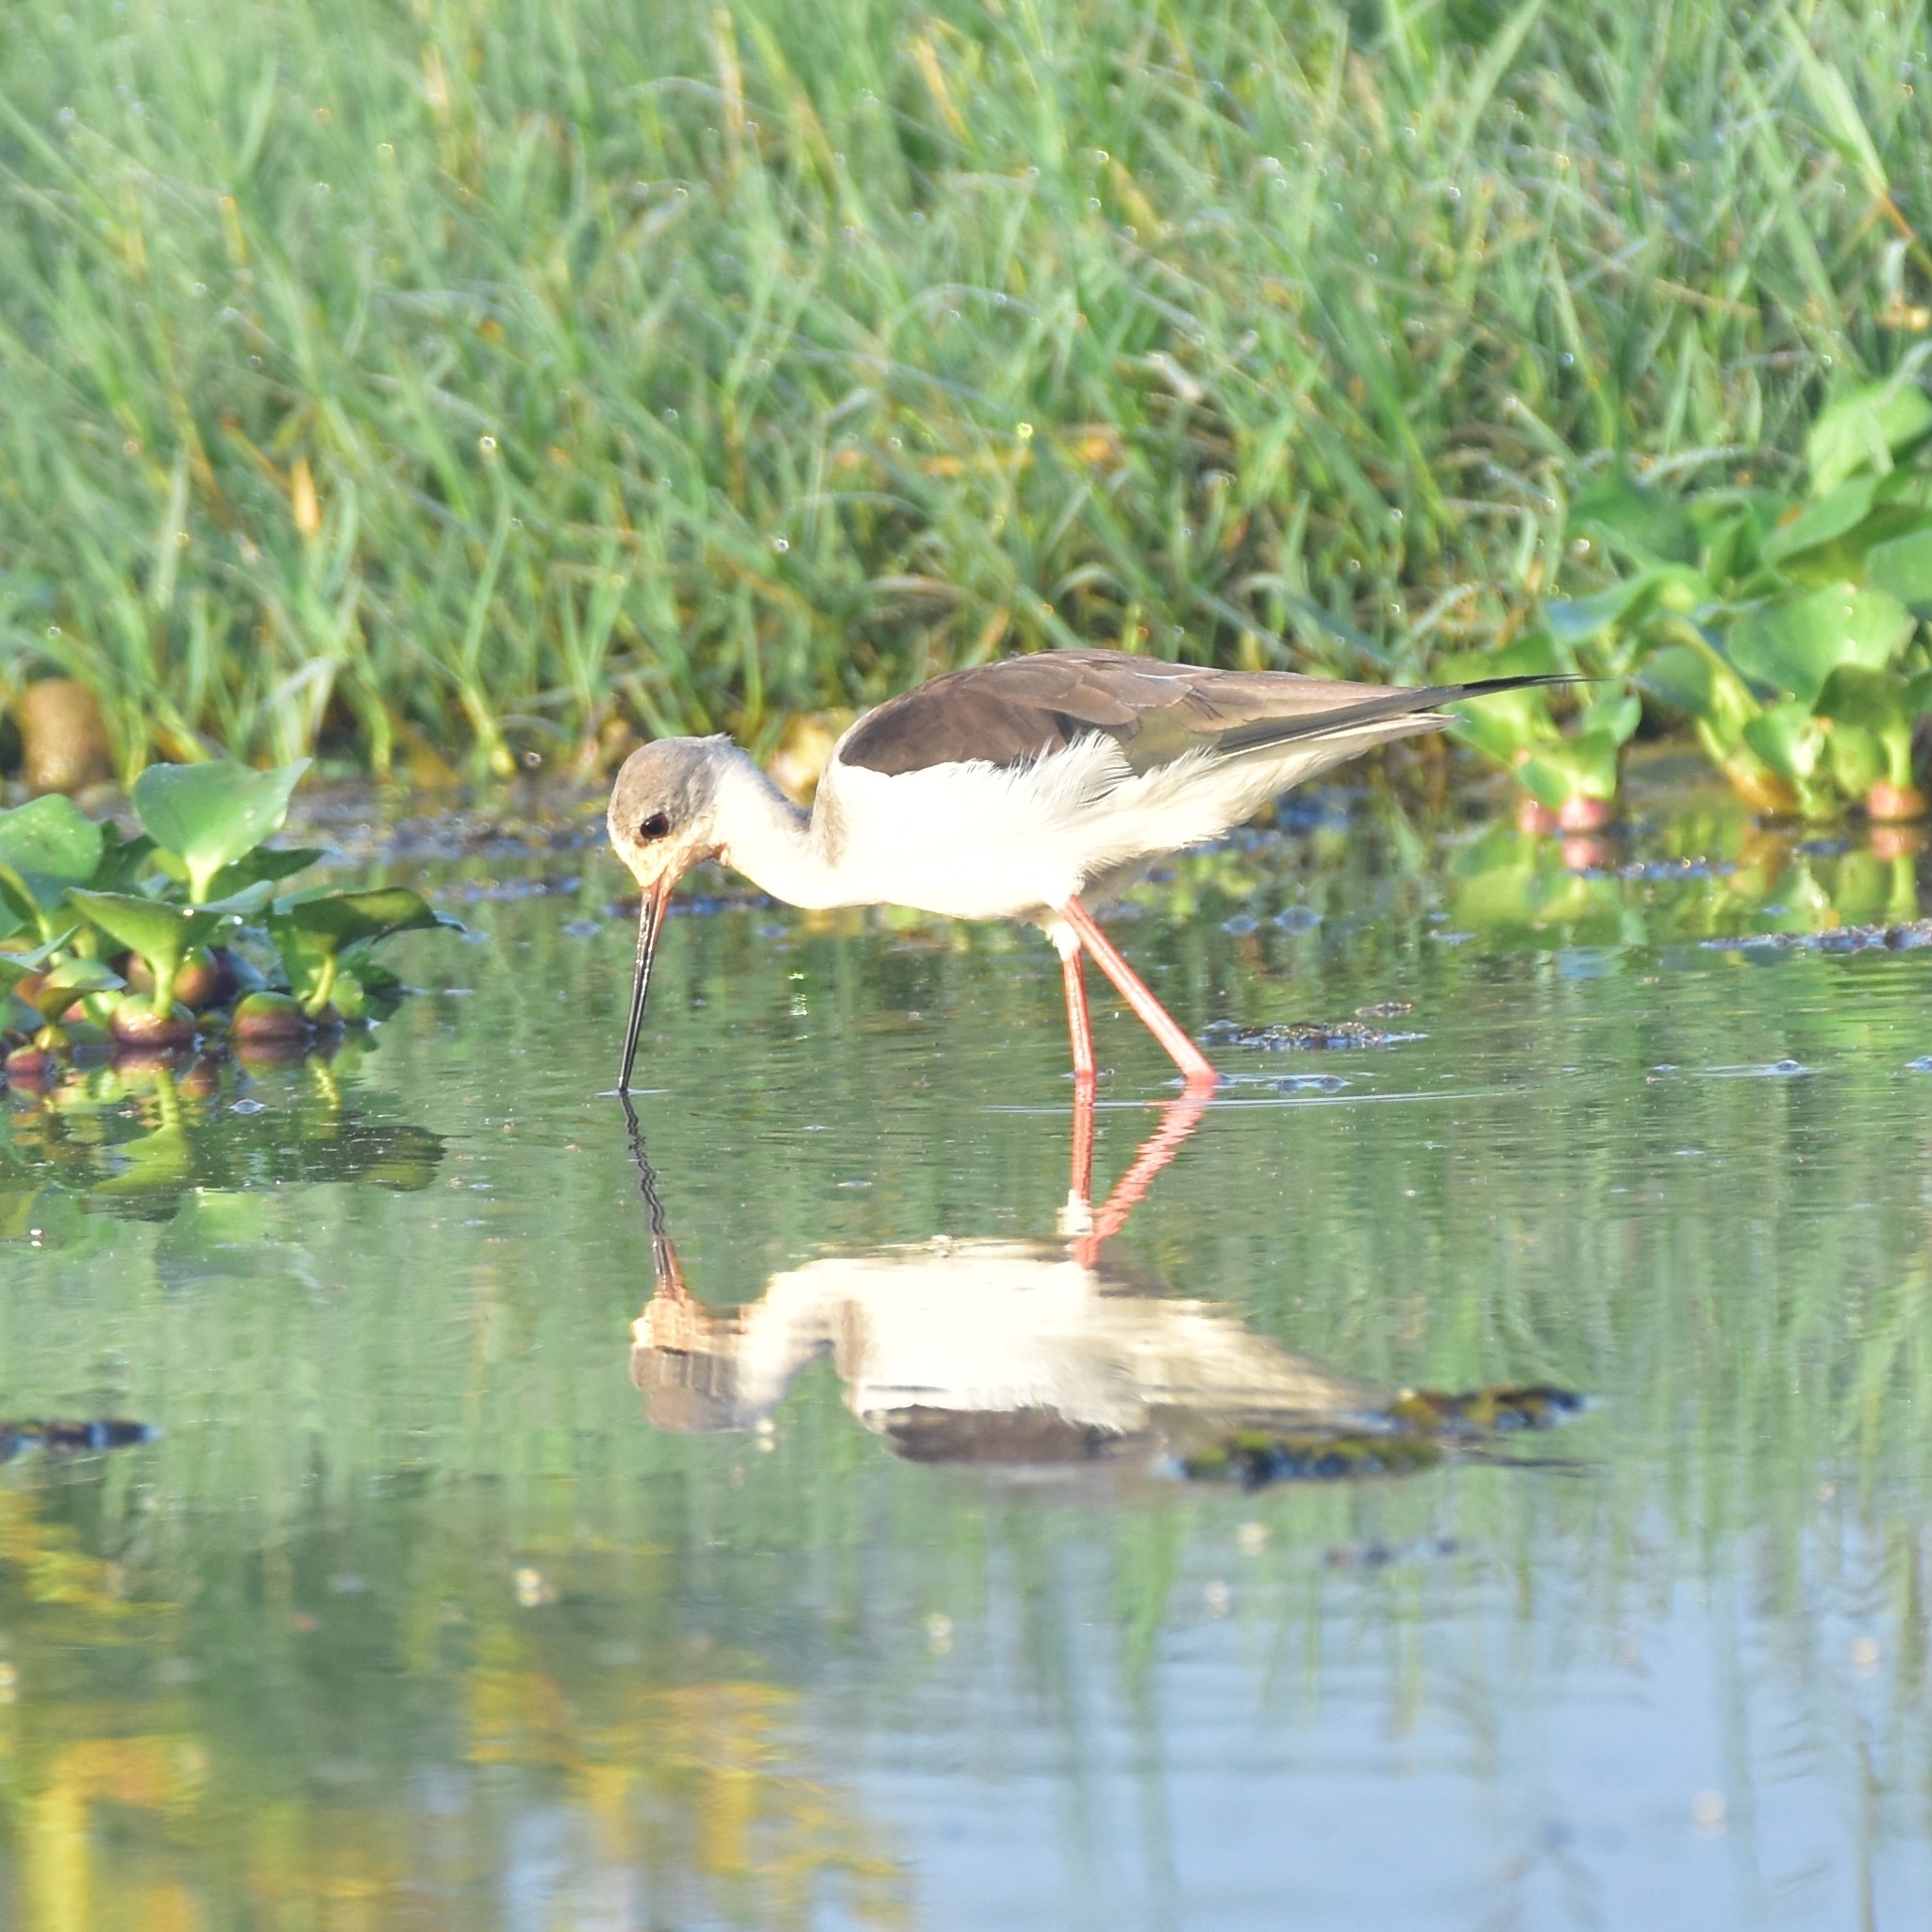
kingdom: Animalia
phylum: Chordata
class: Aves
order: Charadriiformes
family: Recurvirostridae
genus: Himantopus
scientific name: Himantopus himantopus
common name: Black-winged stilt
